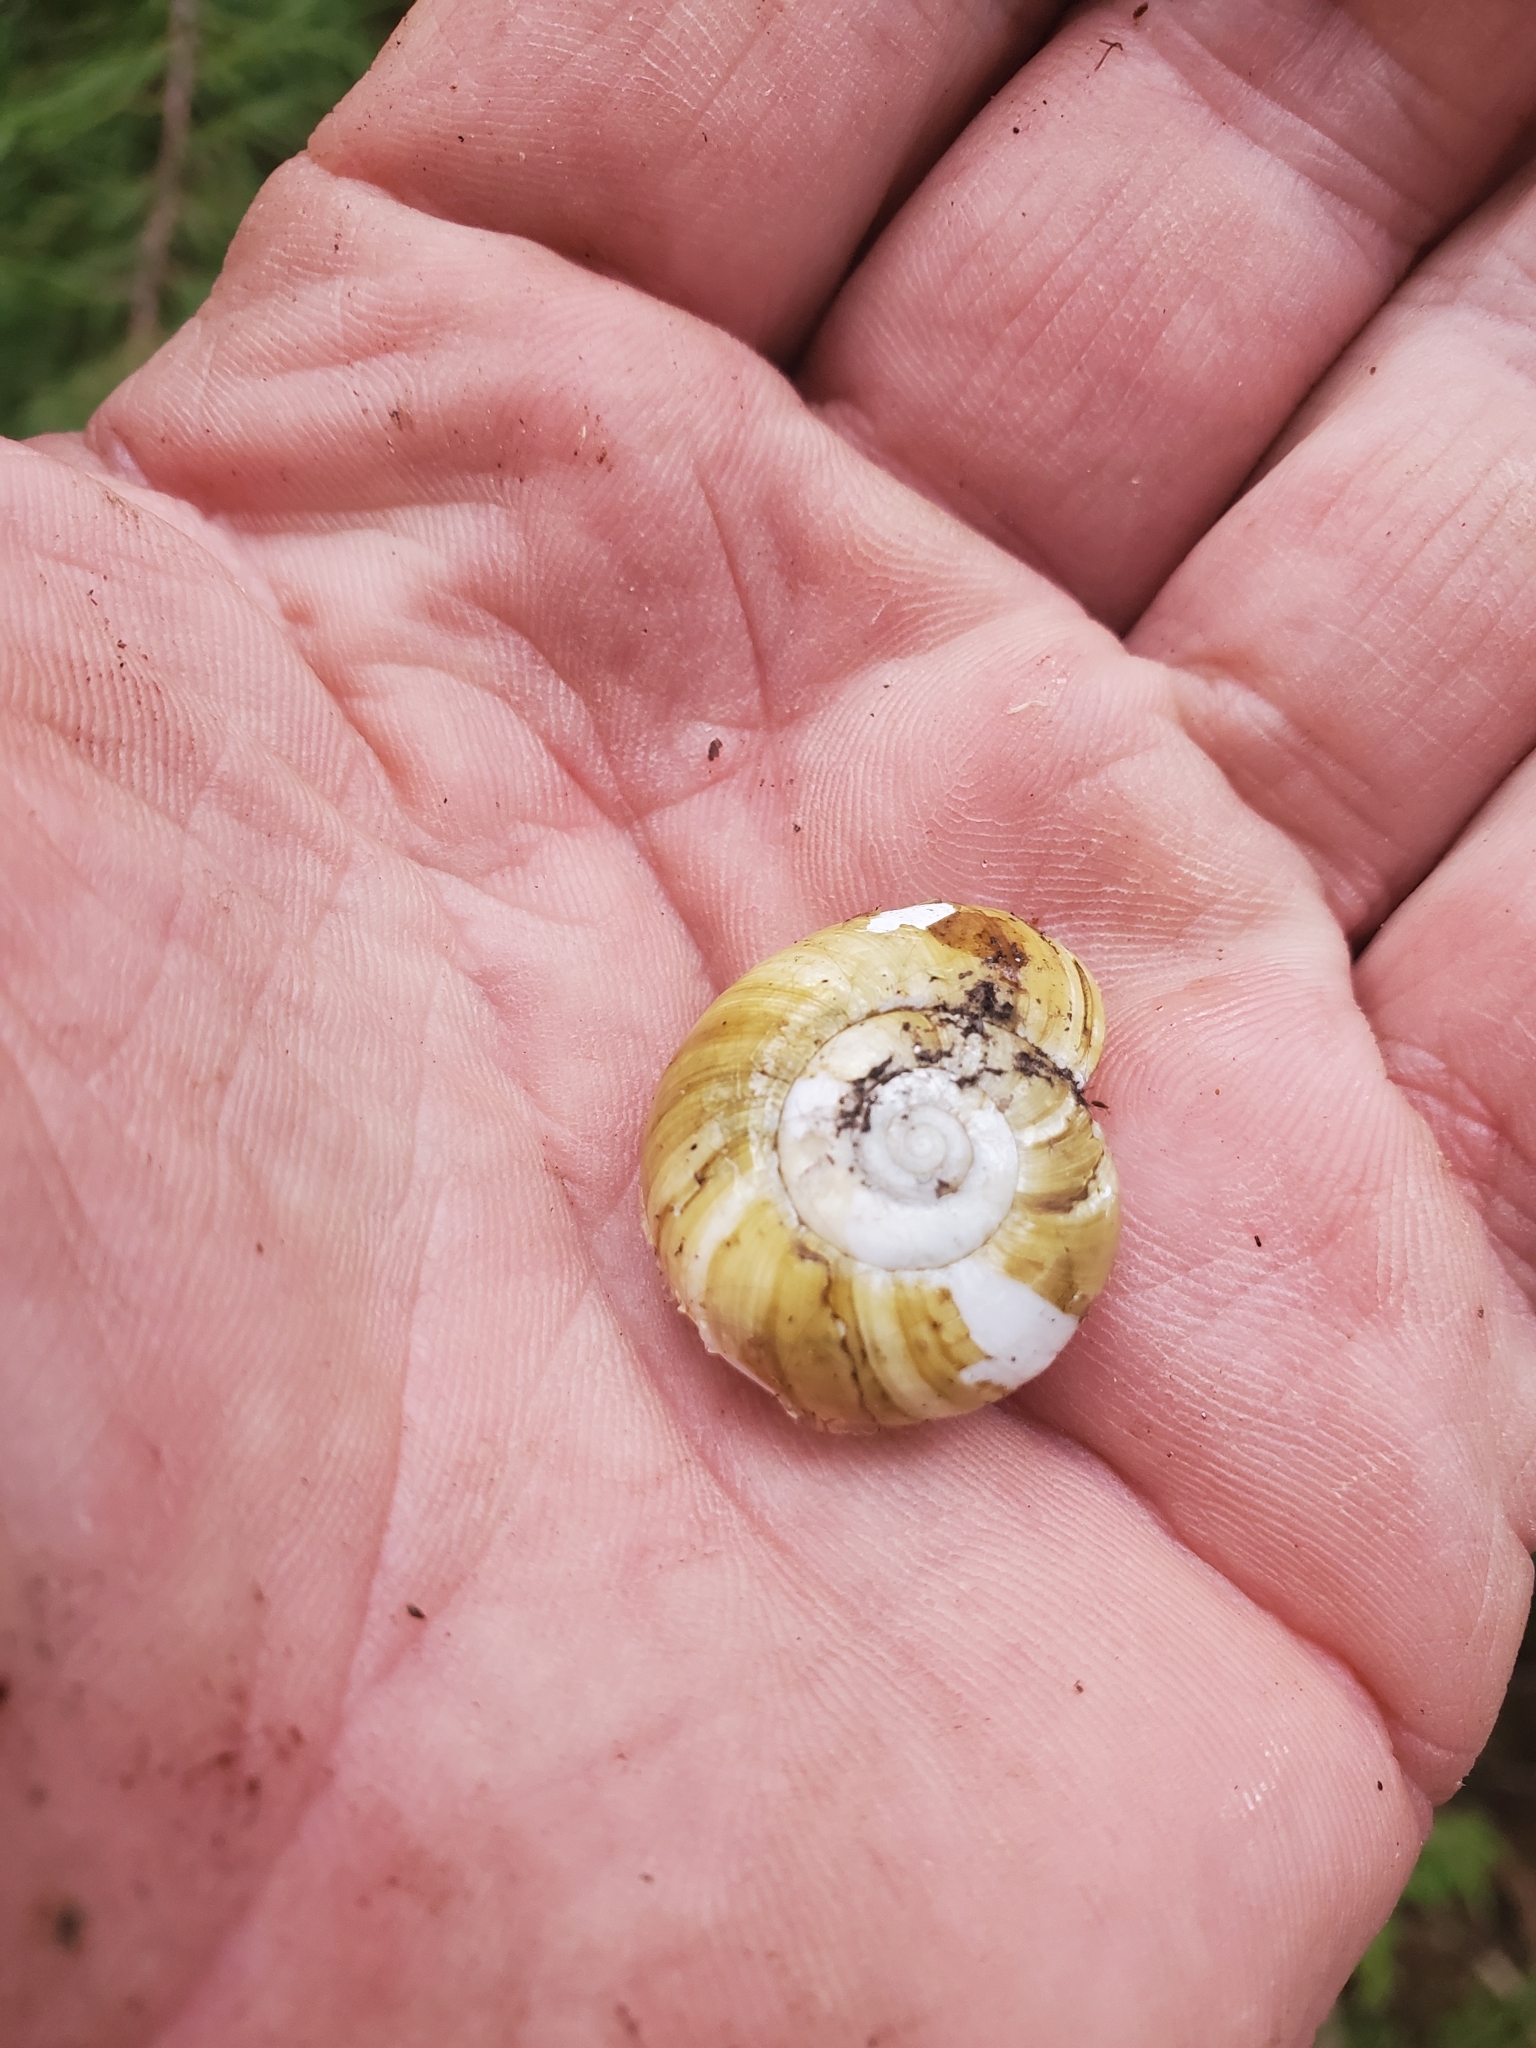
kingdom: Animalia
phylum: Mollusca
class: Gastropoda
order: Stylommatophora
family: Haplotrematidae
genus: Haplotrema
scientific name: Haplotrema vancouverense
